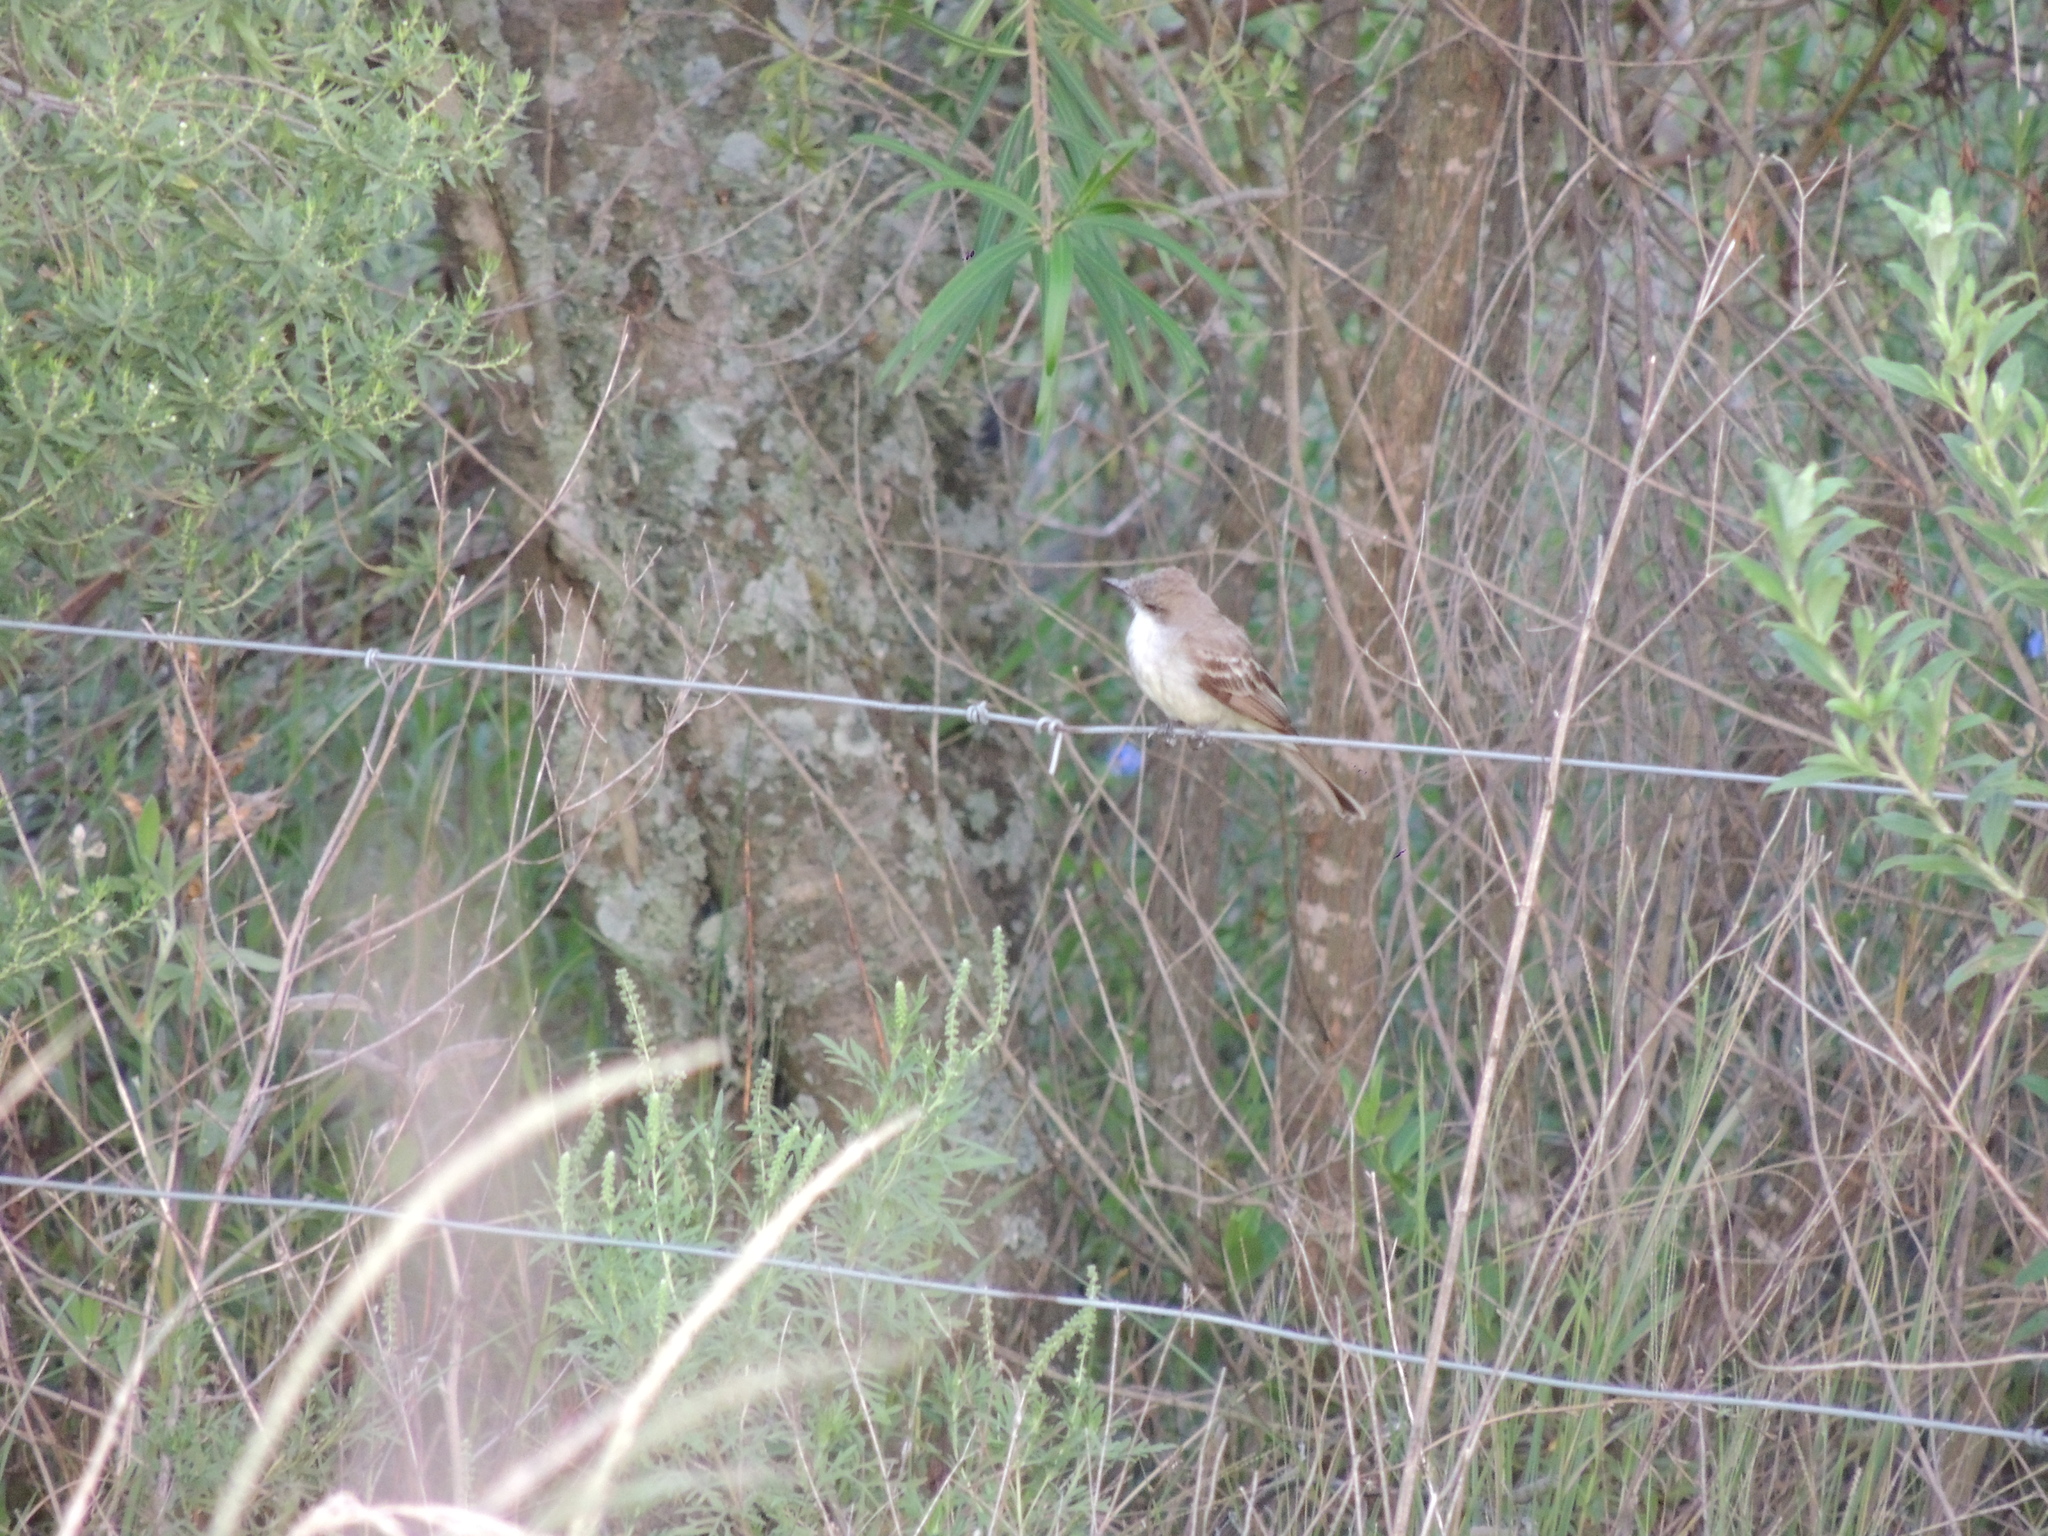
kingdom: Animalia
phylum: Chordata
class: Aves
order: Passeriformes
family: Tyrannidae
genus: Myiarchus
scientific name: Myiarchus swainsoni
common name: Swainson's flycatcher
